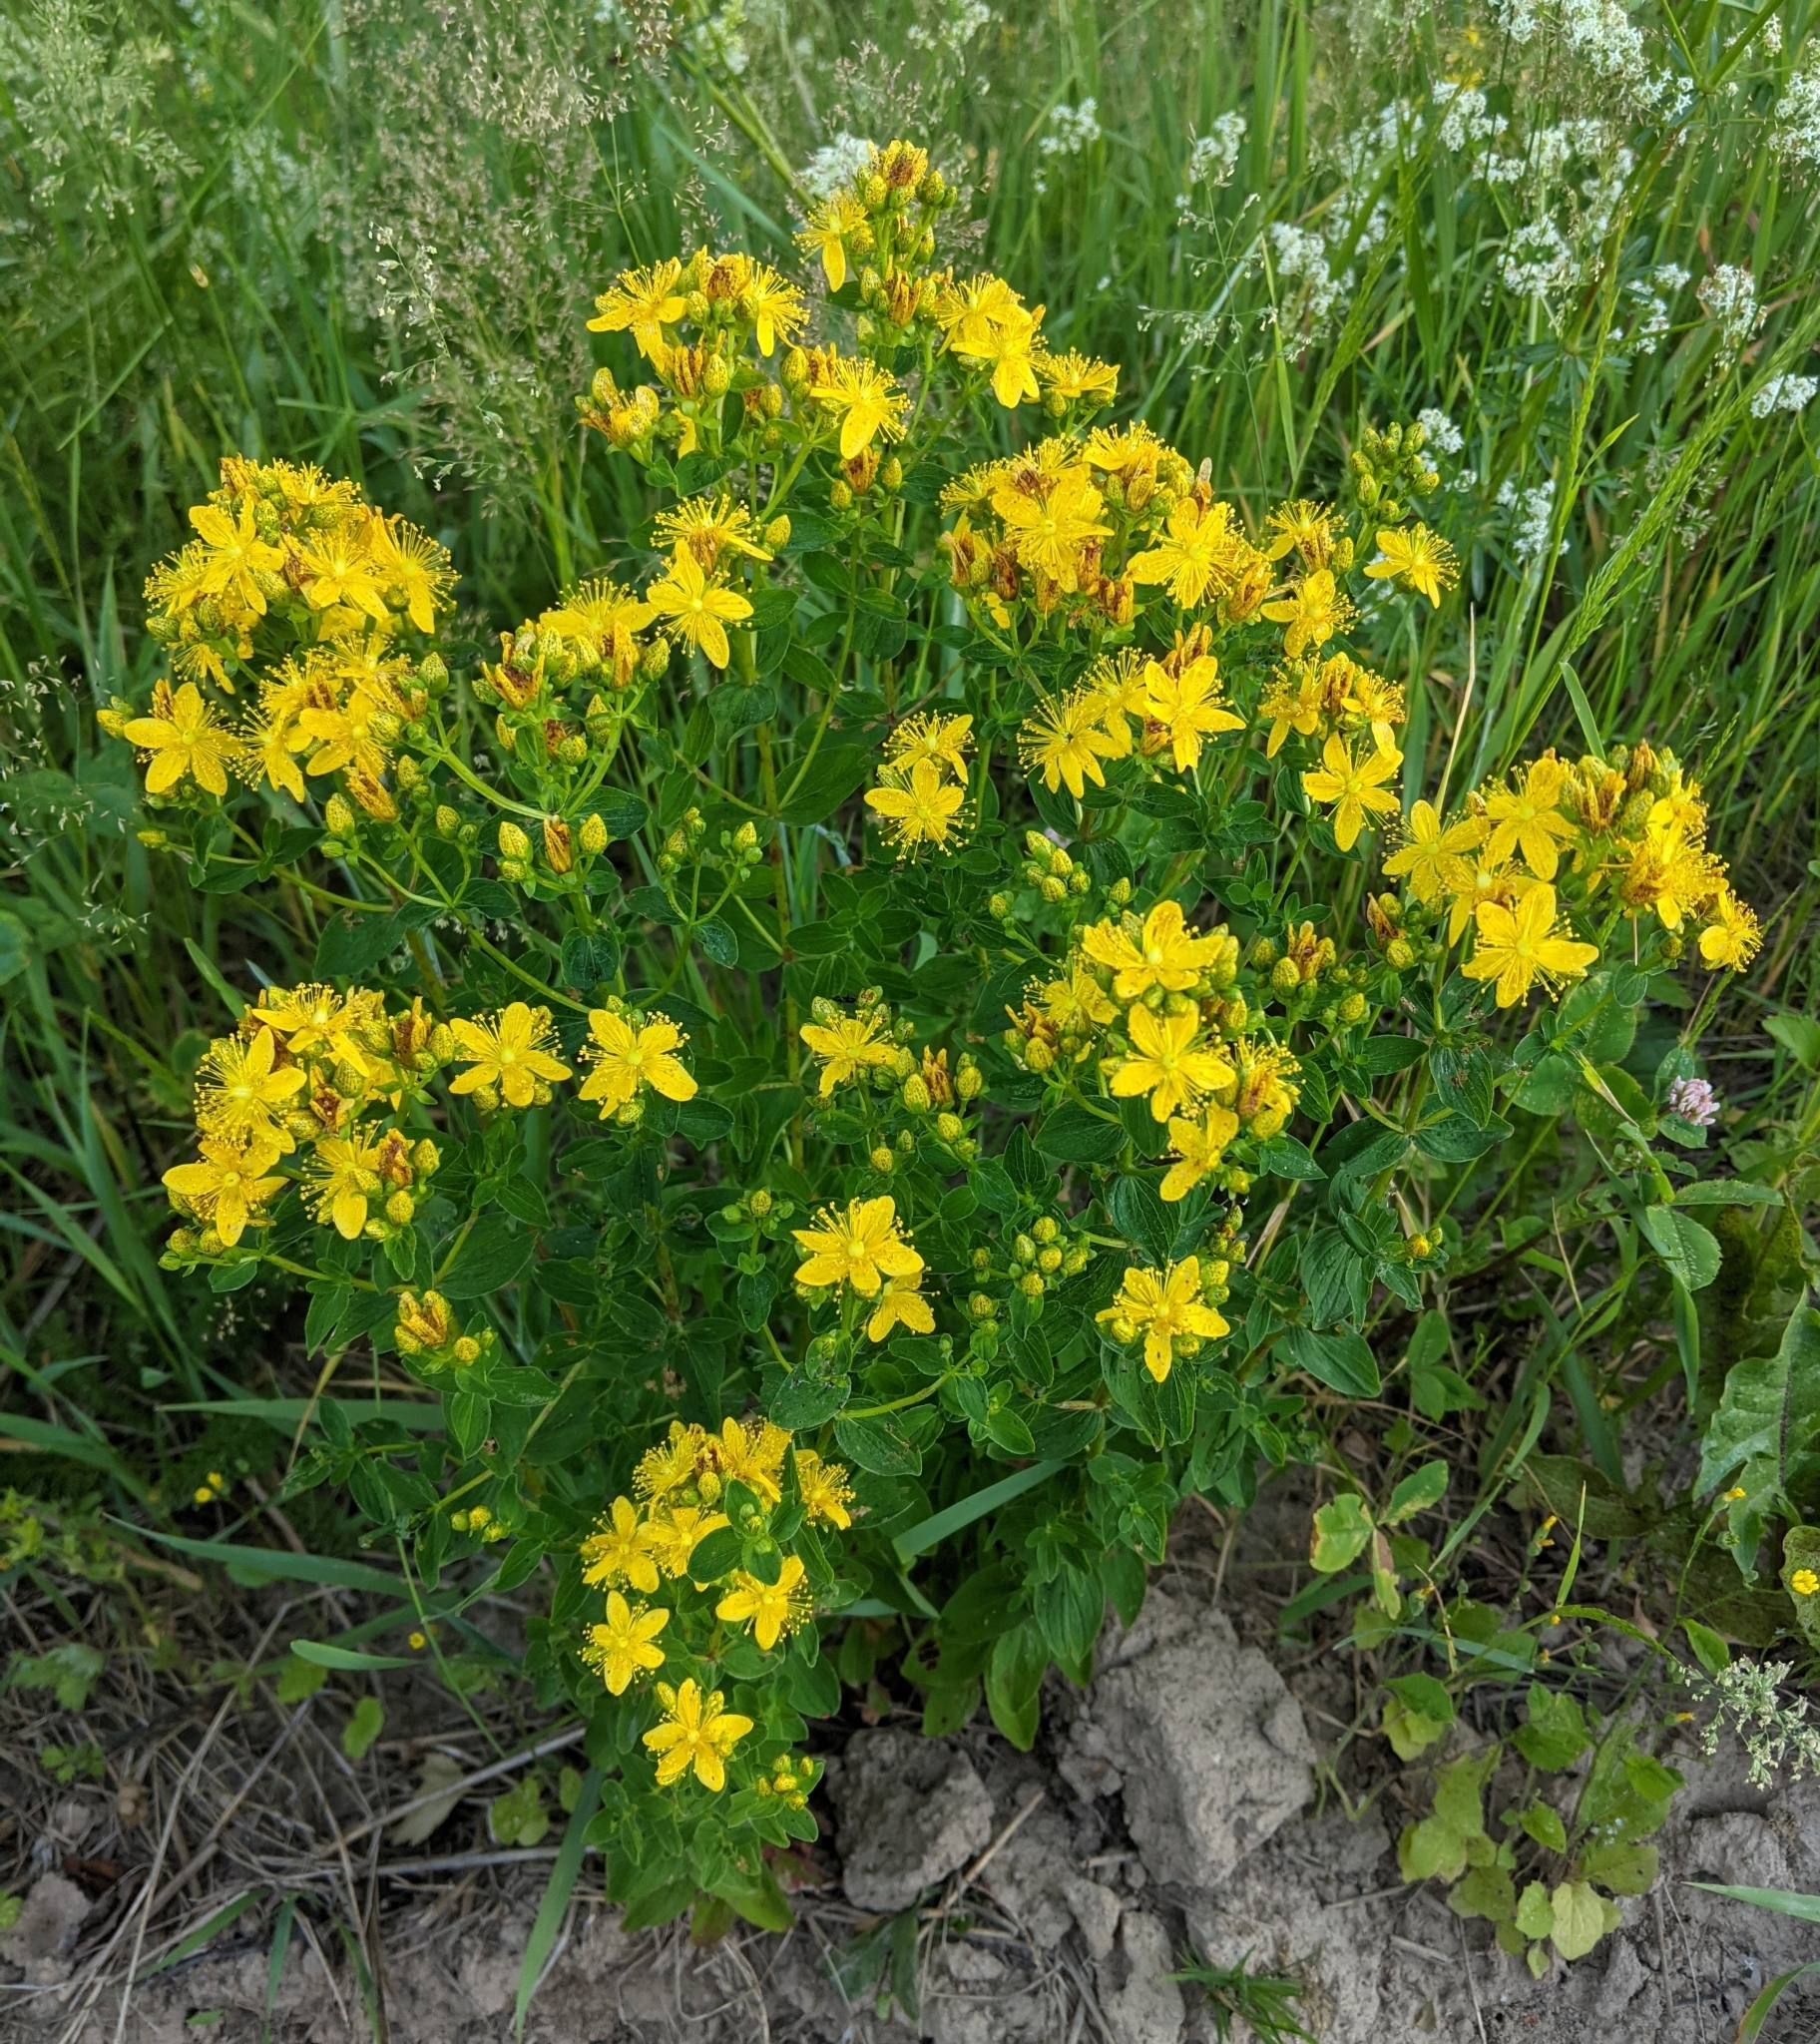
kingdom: Plantae
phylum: Tracheophyta
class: Magnoliopsida
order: Malpighiales
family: Hypericaceae
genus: Hypericum
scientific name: Hypericum maculatum
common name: Imperforate st. john's-wort
